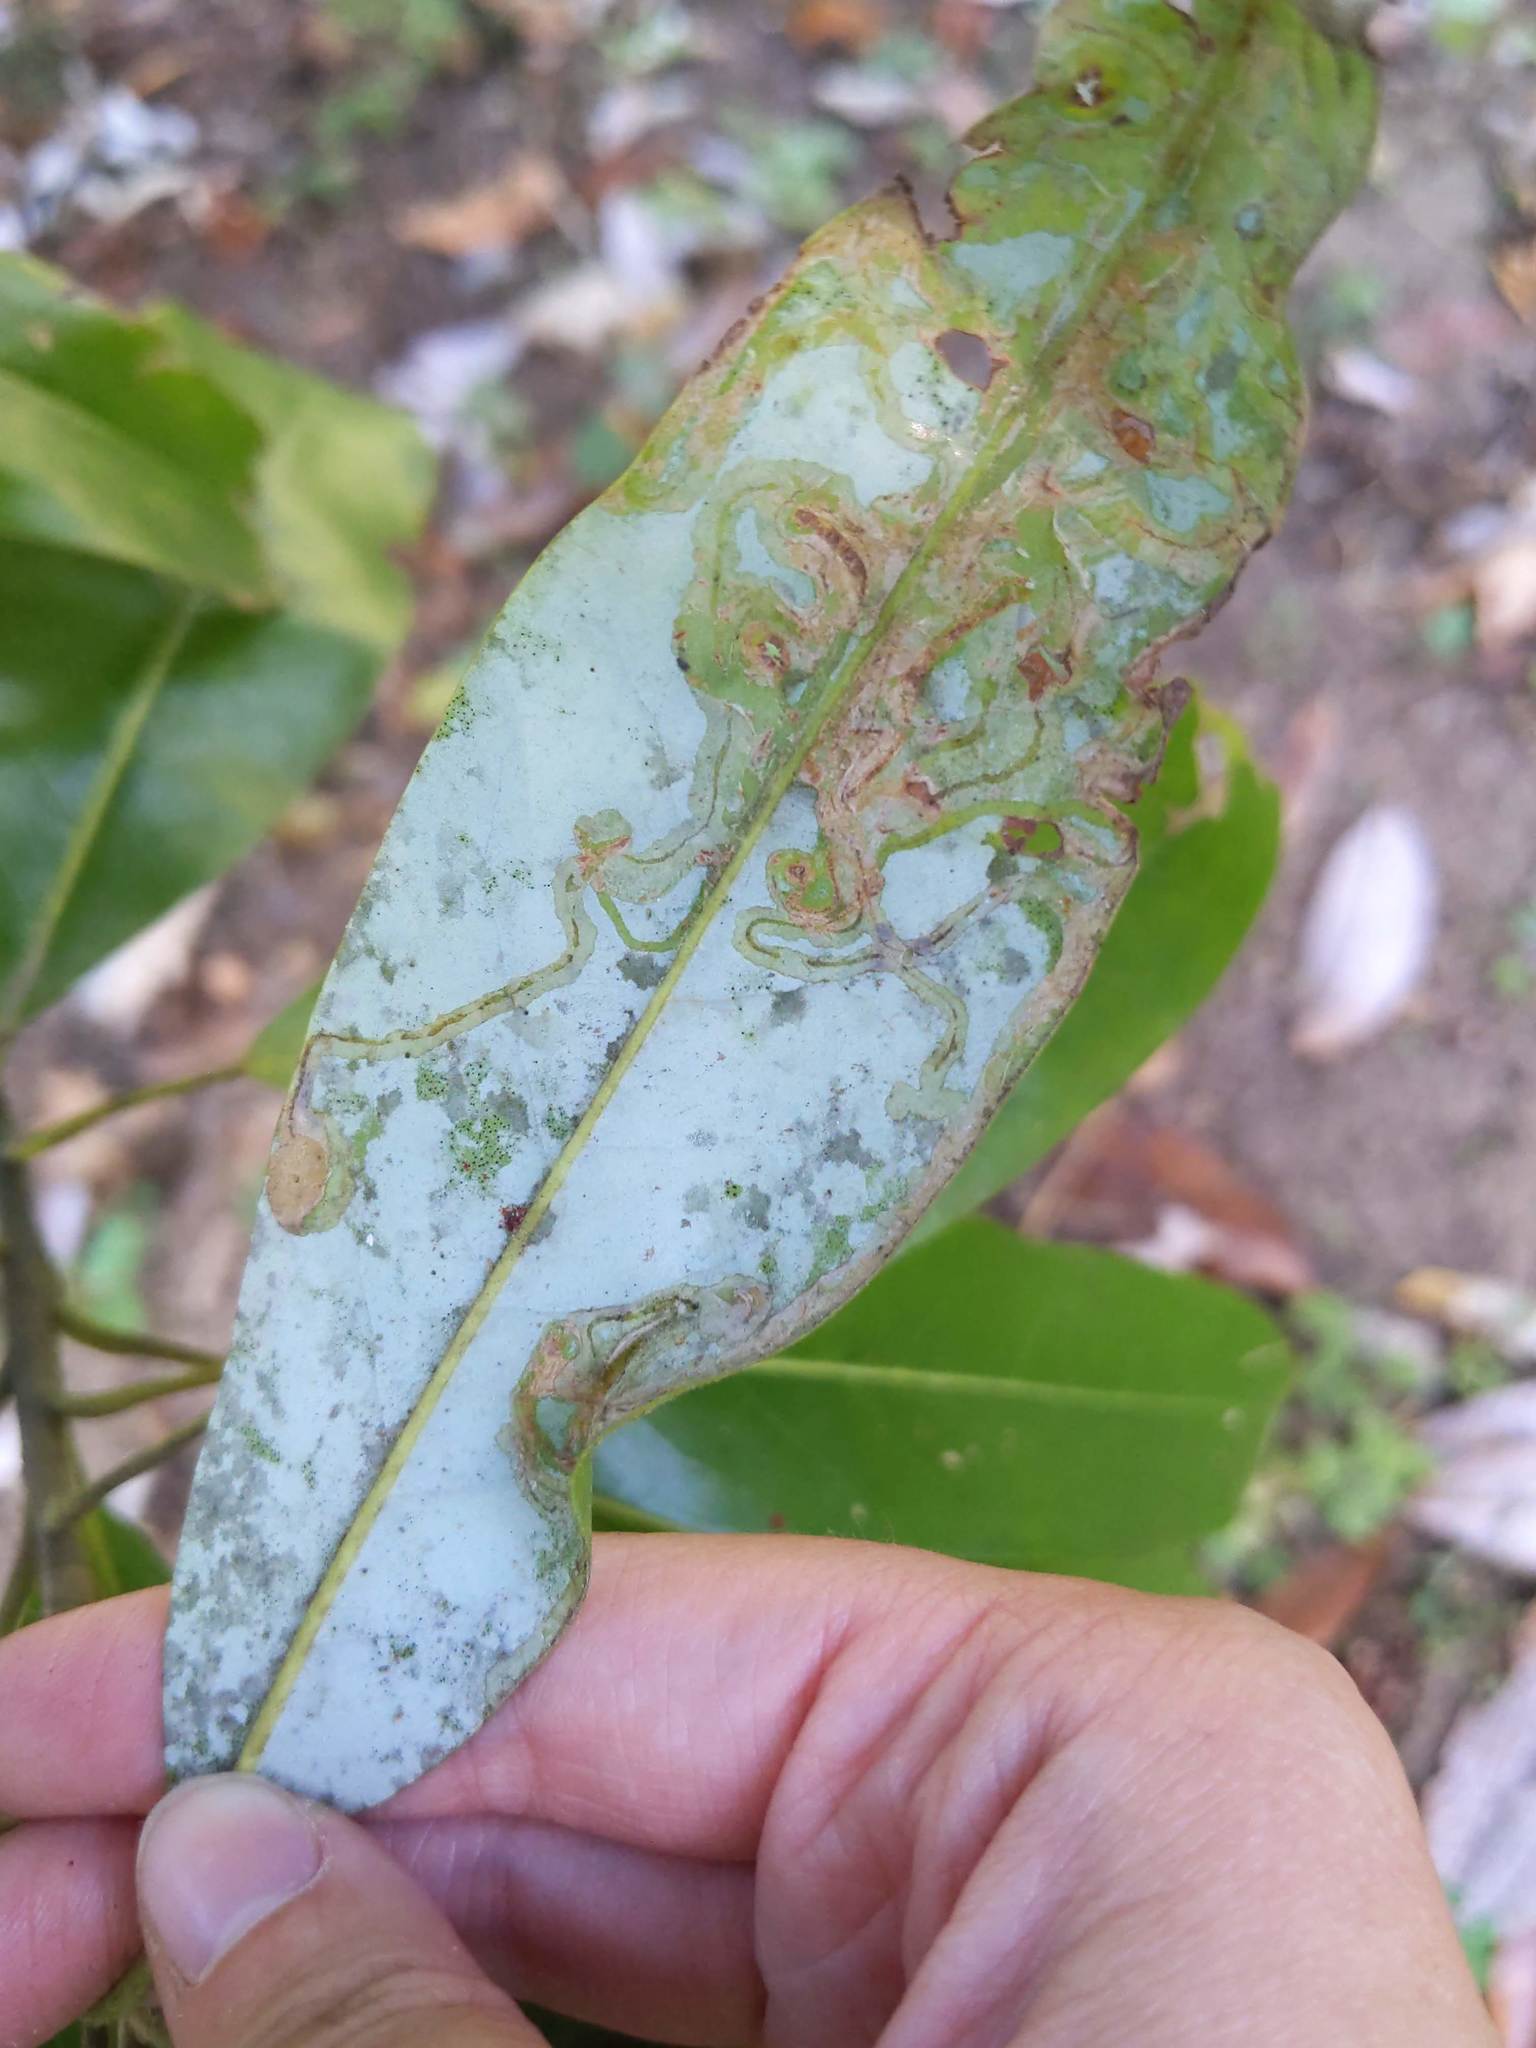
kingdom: Animalia
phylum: Arthropoda
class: Insecta
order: Lepidoptera
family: Gracillariidae
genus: Phyllocnistis
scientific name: Phyllocnistis liriodendronella
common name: Tulip tree leaf miner
